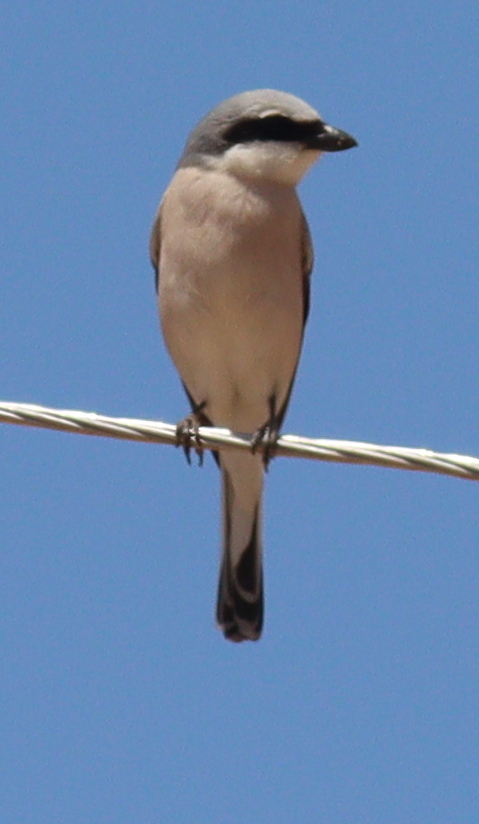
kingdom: Animalia
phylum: Chordata
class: Aves
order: Passeriformes
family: Laniidae
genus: Lanius
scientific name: Lanius collurio
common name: Red-backed shrike
